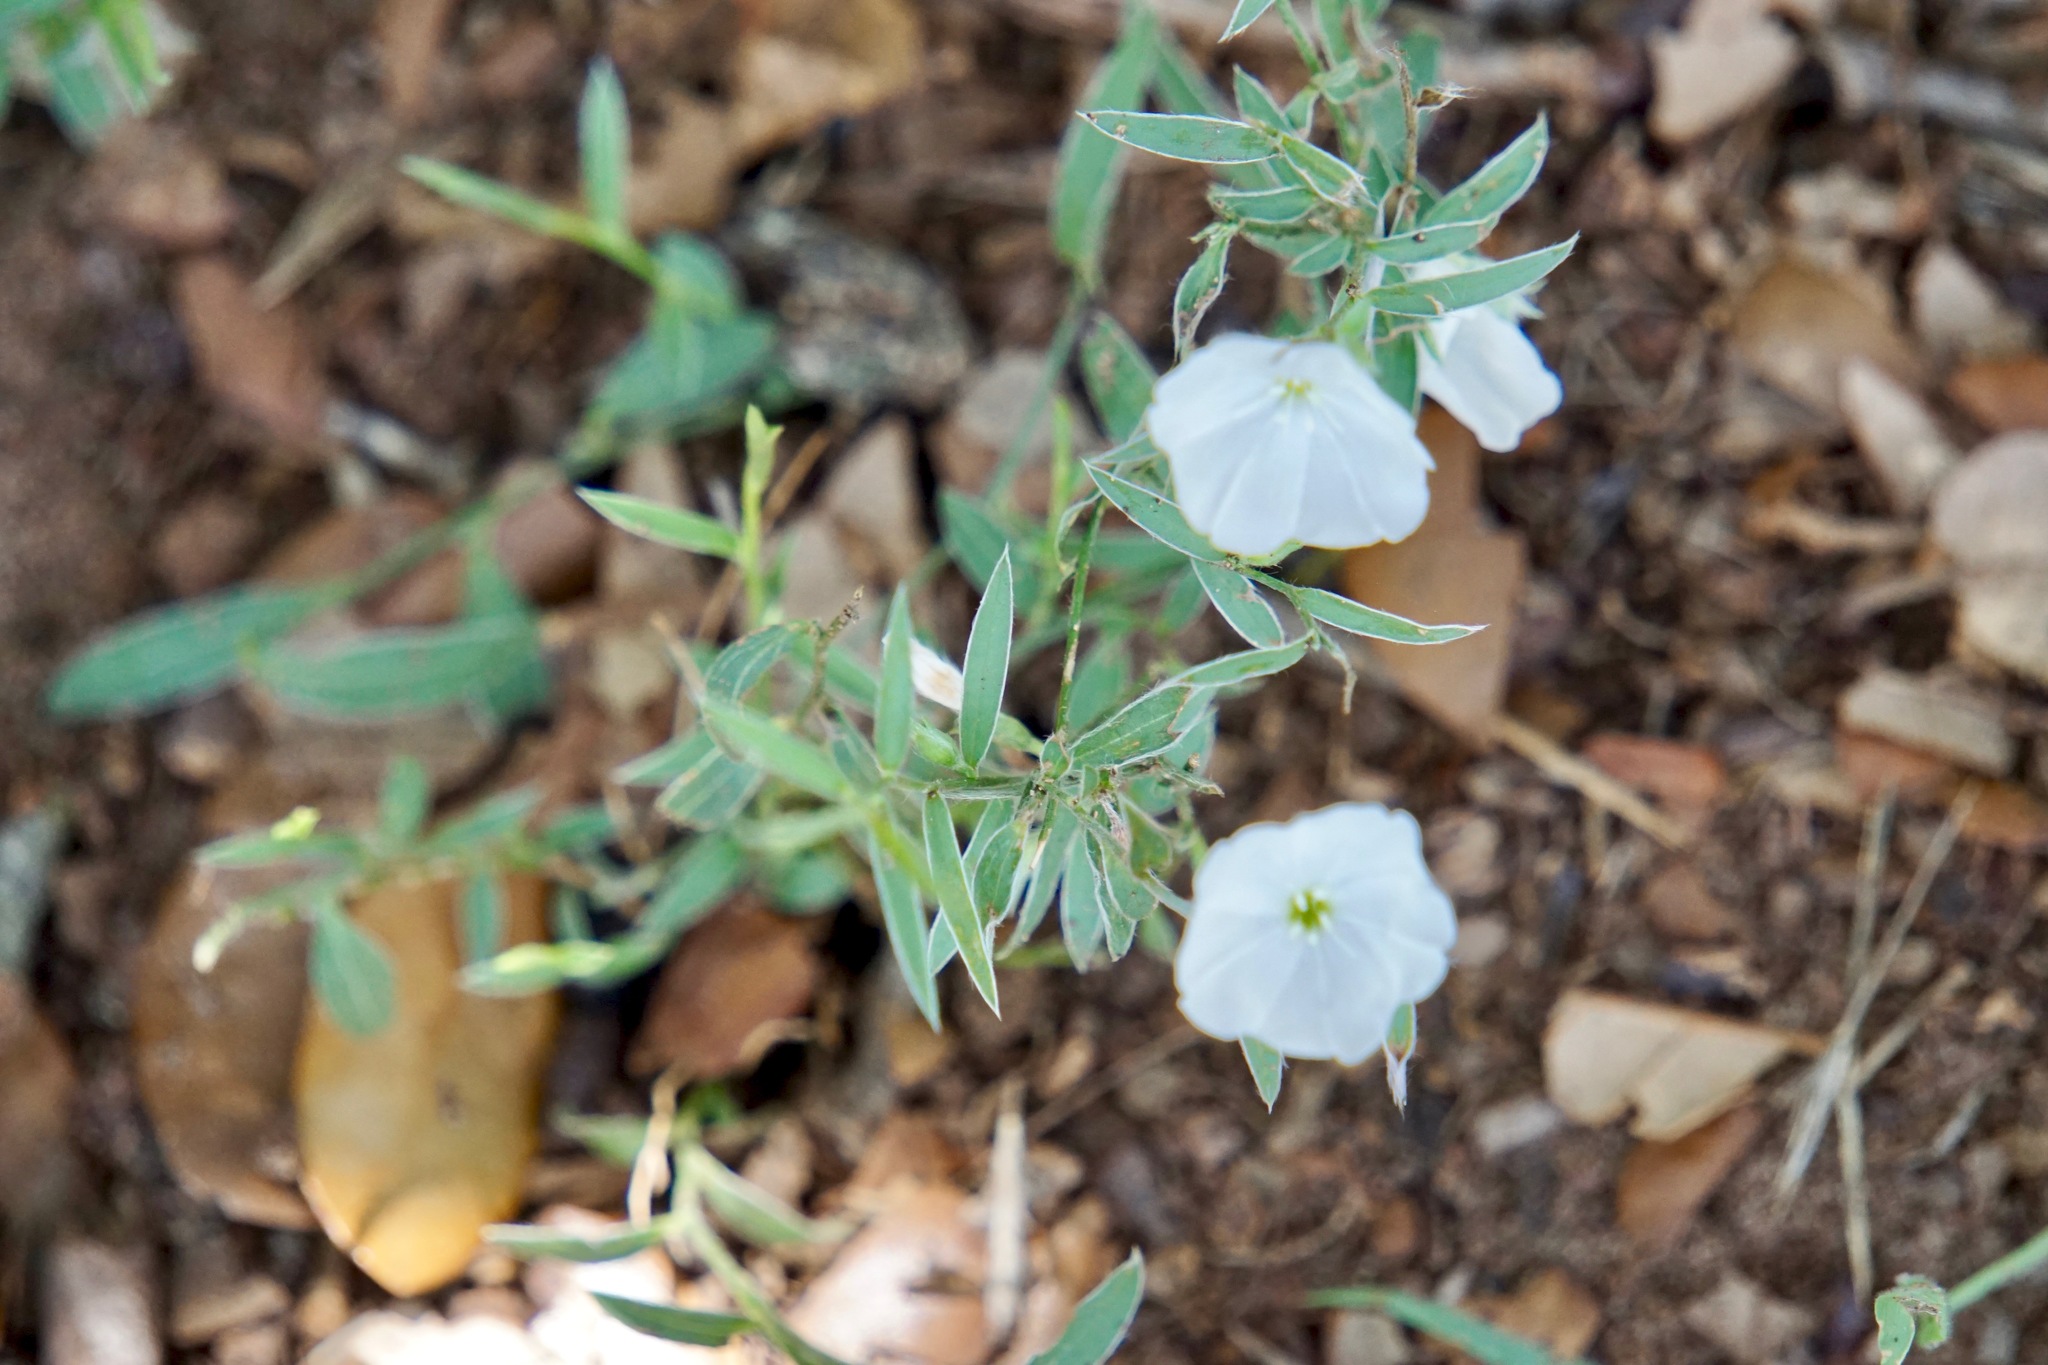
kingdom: Plantae
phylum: Tracheophyta
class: Magnoliopsida
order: Solanales
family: Convolvulaceae
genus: Evolvulus
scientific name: Evolvulus sericeus
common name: Blue dots
